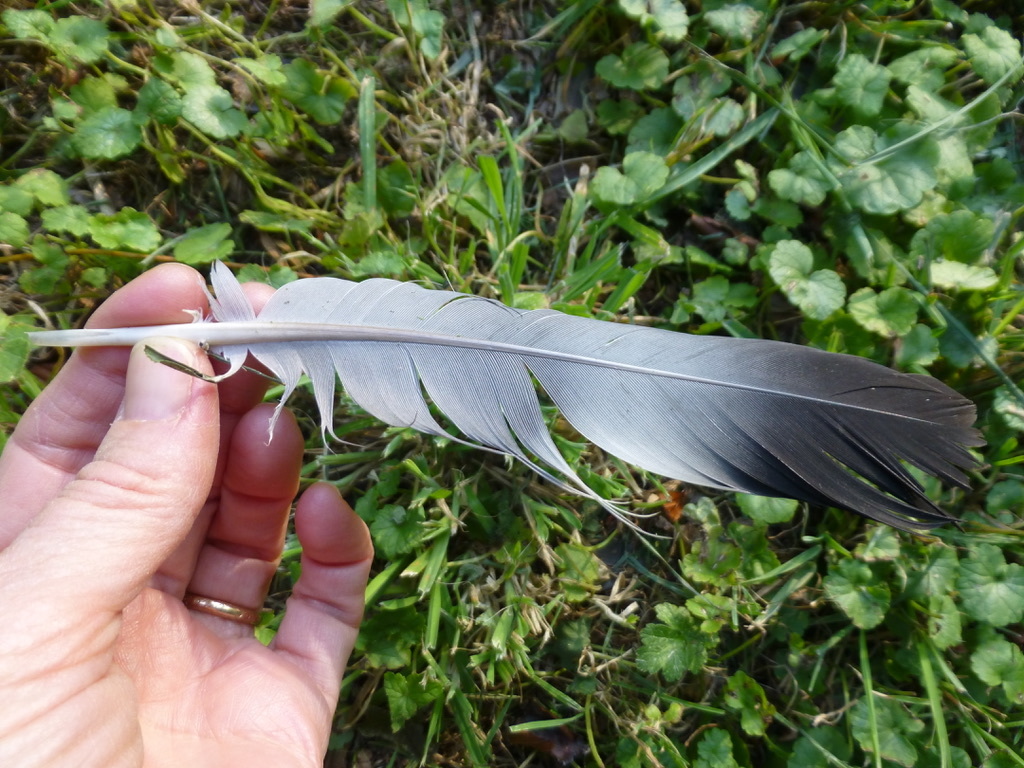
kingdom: Animalia
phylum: Chordata
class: Aves
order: Columbiformes
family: Columbidae
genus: Columba
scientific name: Columba palumbus
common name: Common wood pigeon
